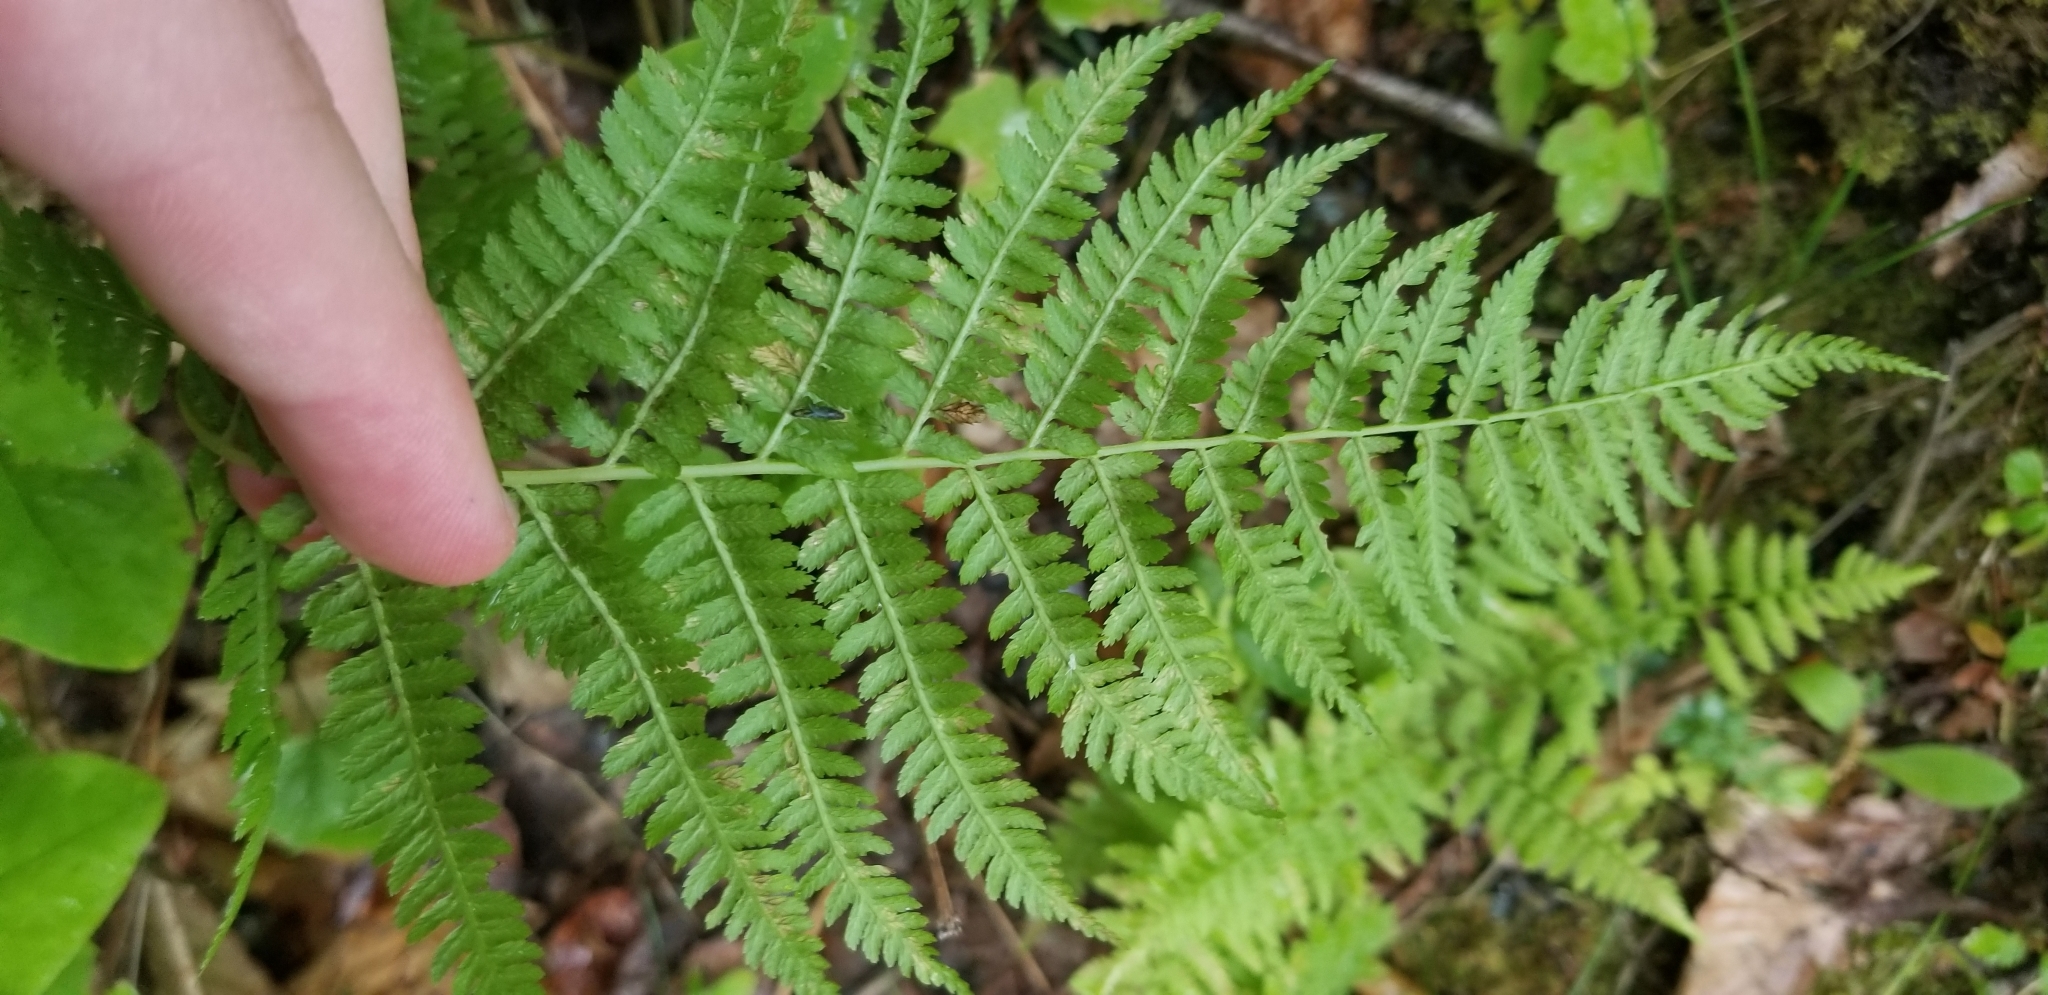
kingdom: Plantae
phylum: Tracheophyta
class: Polypodiopsida
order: Polypodiales
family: Athyriaceae
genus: Athyrium
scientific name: Athyrium angustum
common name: Northern lady fern
